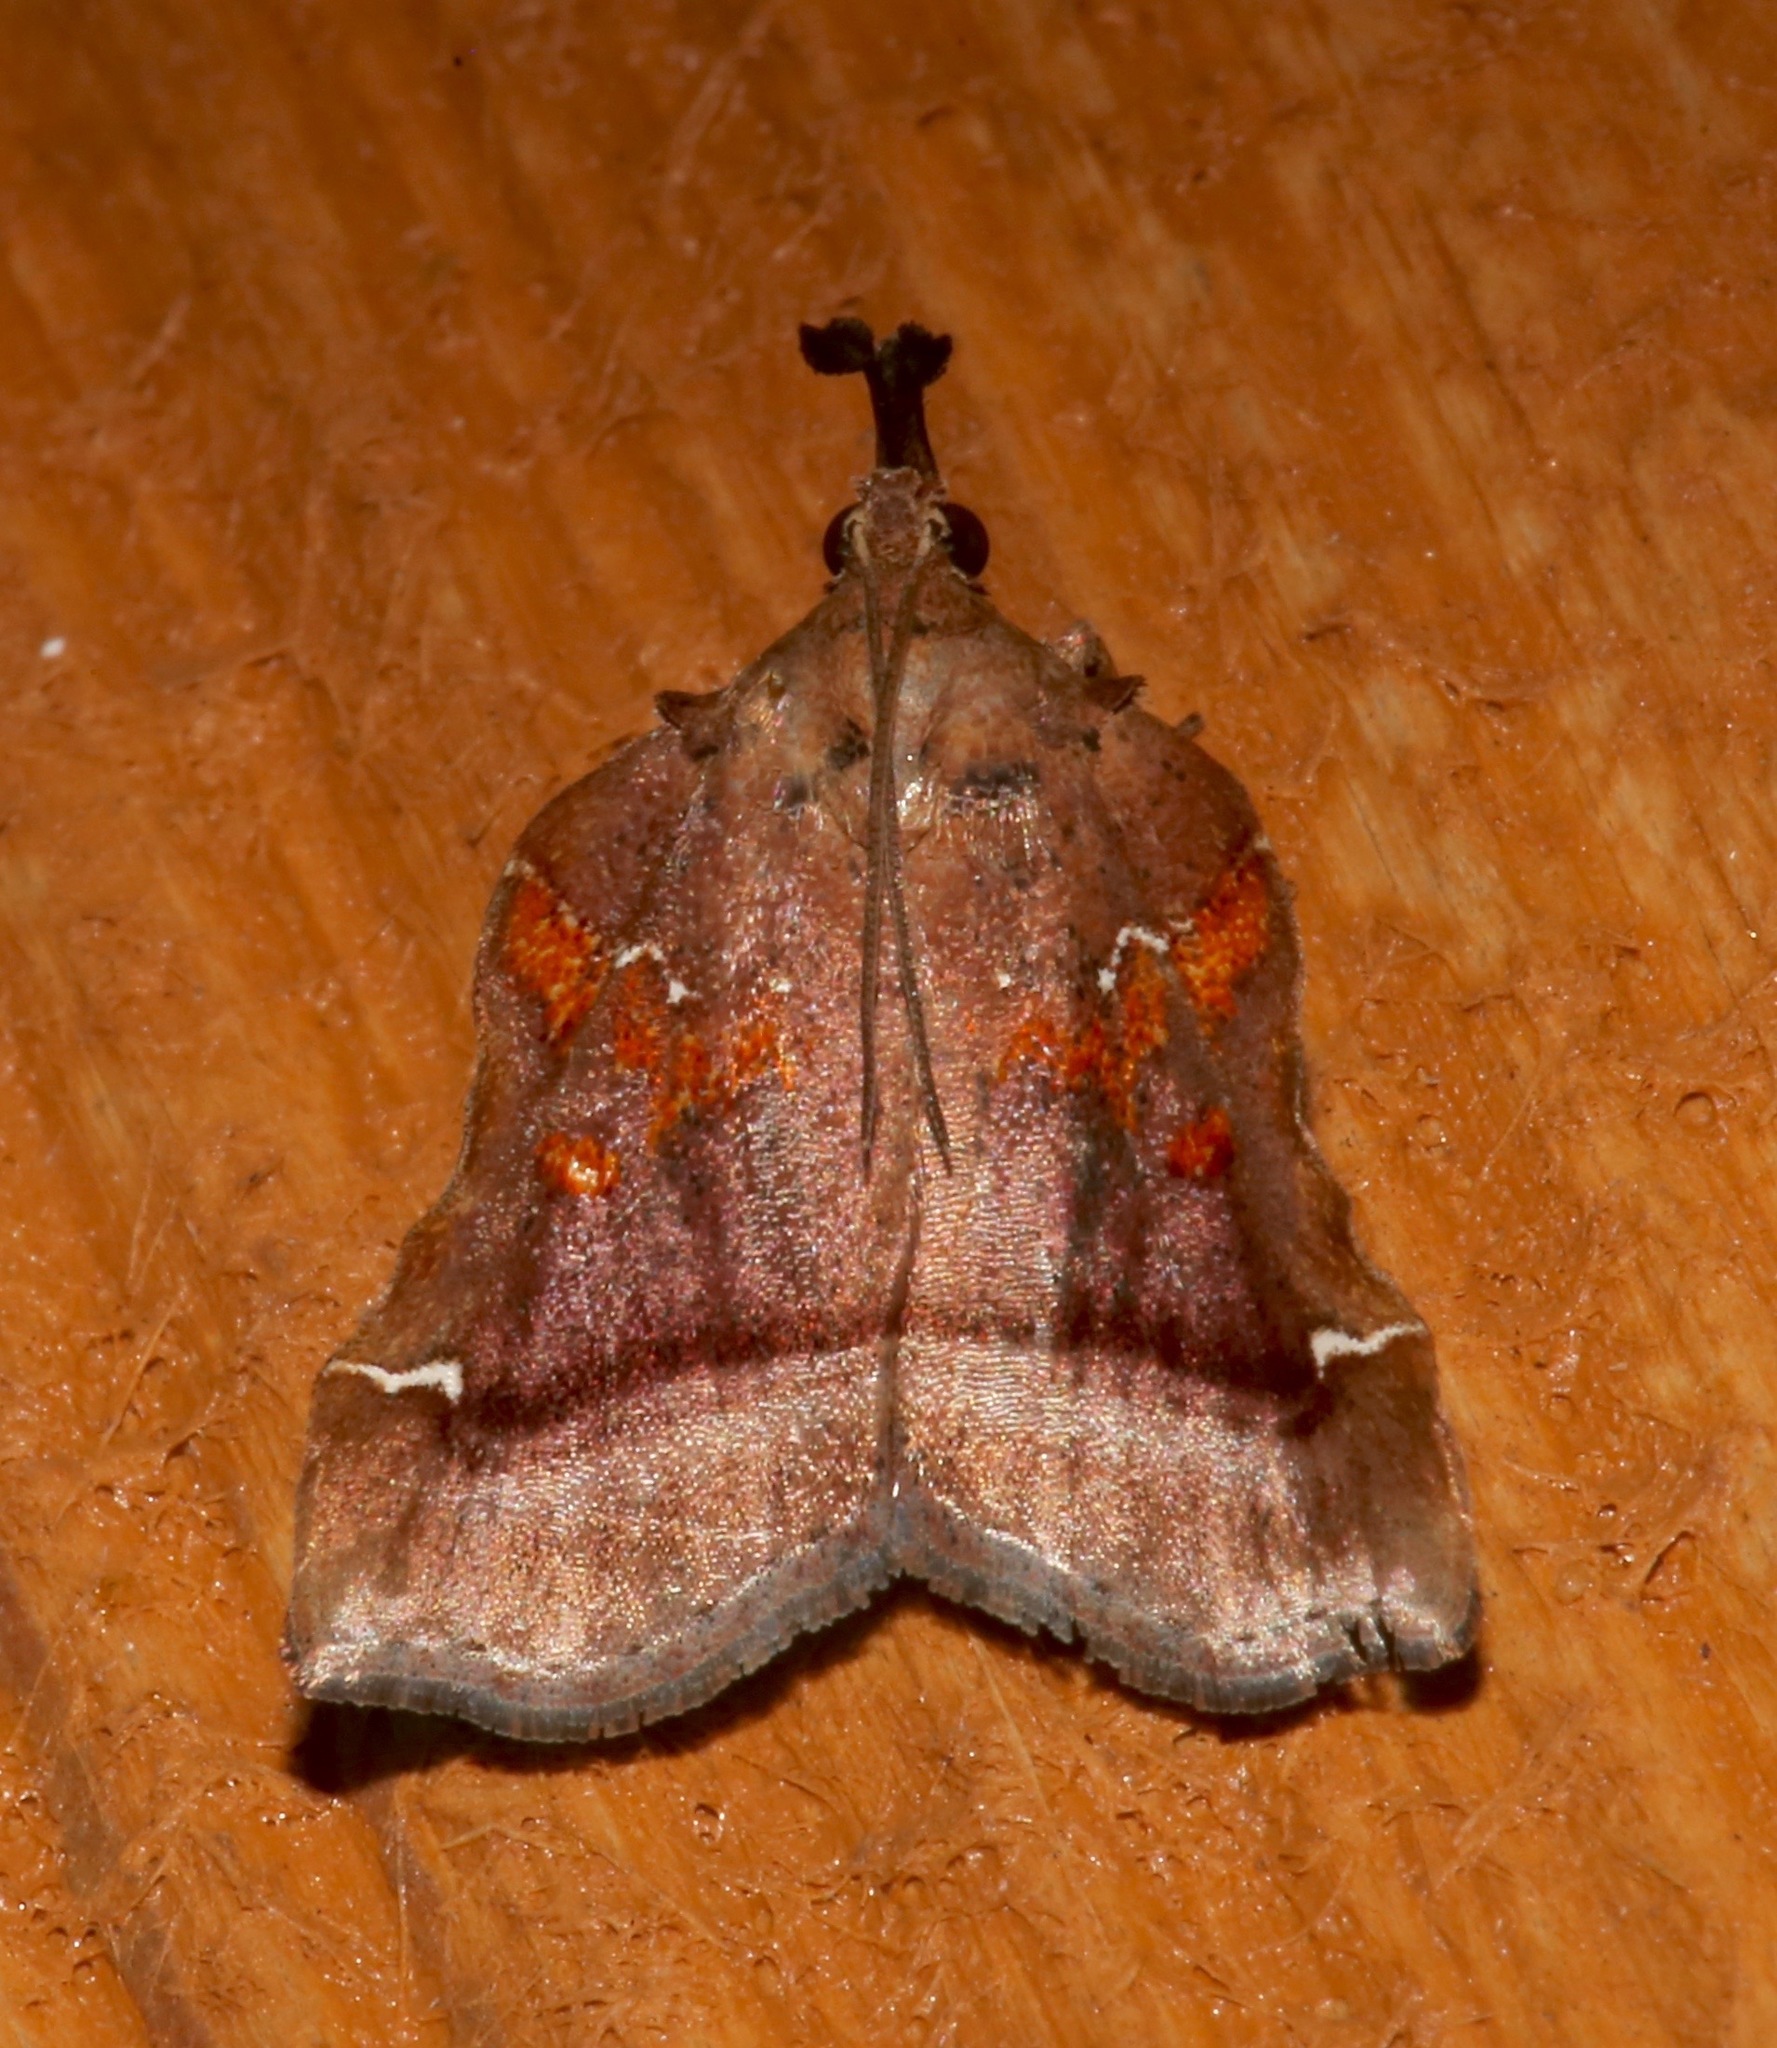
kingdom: Animalia
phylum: Arthropoda
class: Insecta
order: Lepidoptera
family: Pyralidae
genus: Clydonopteron
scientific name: Clydonopteron sacculana
